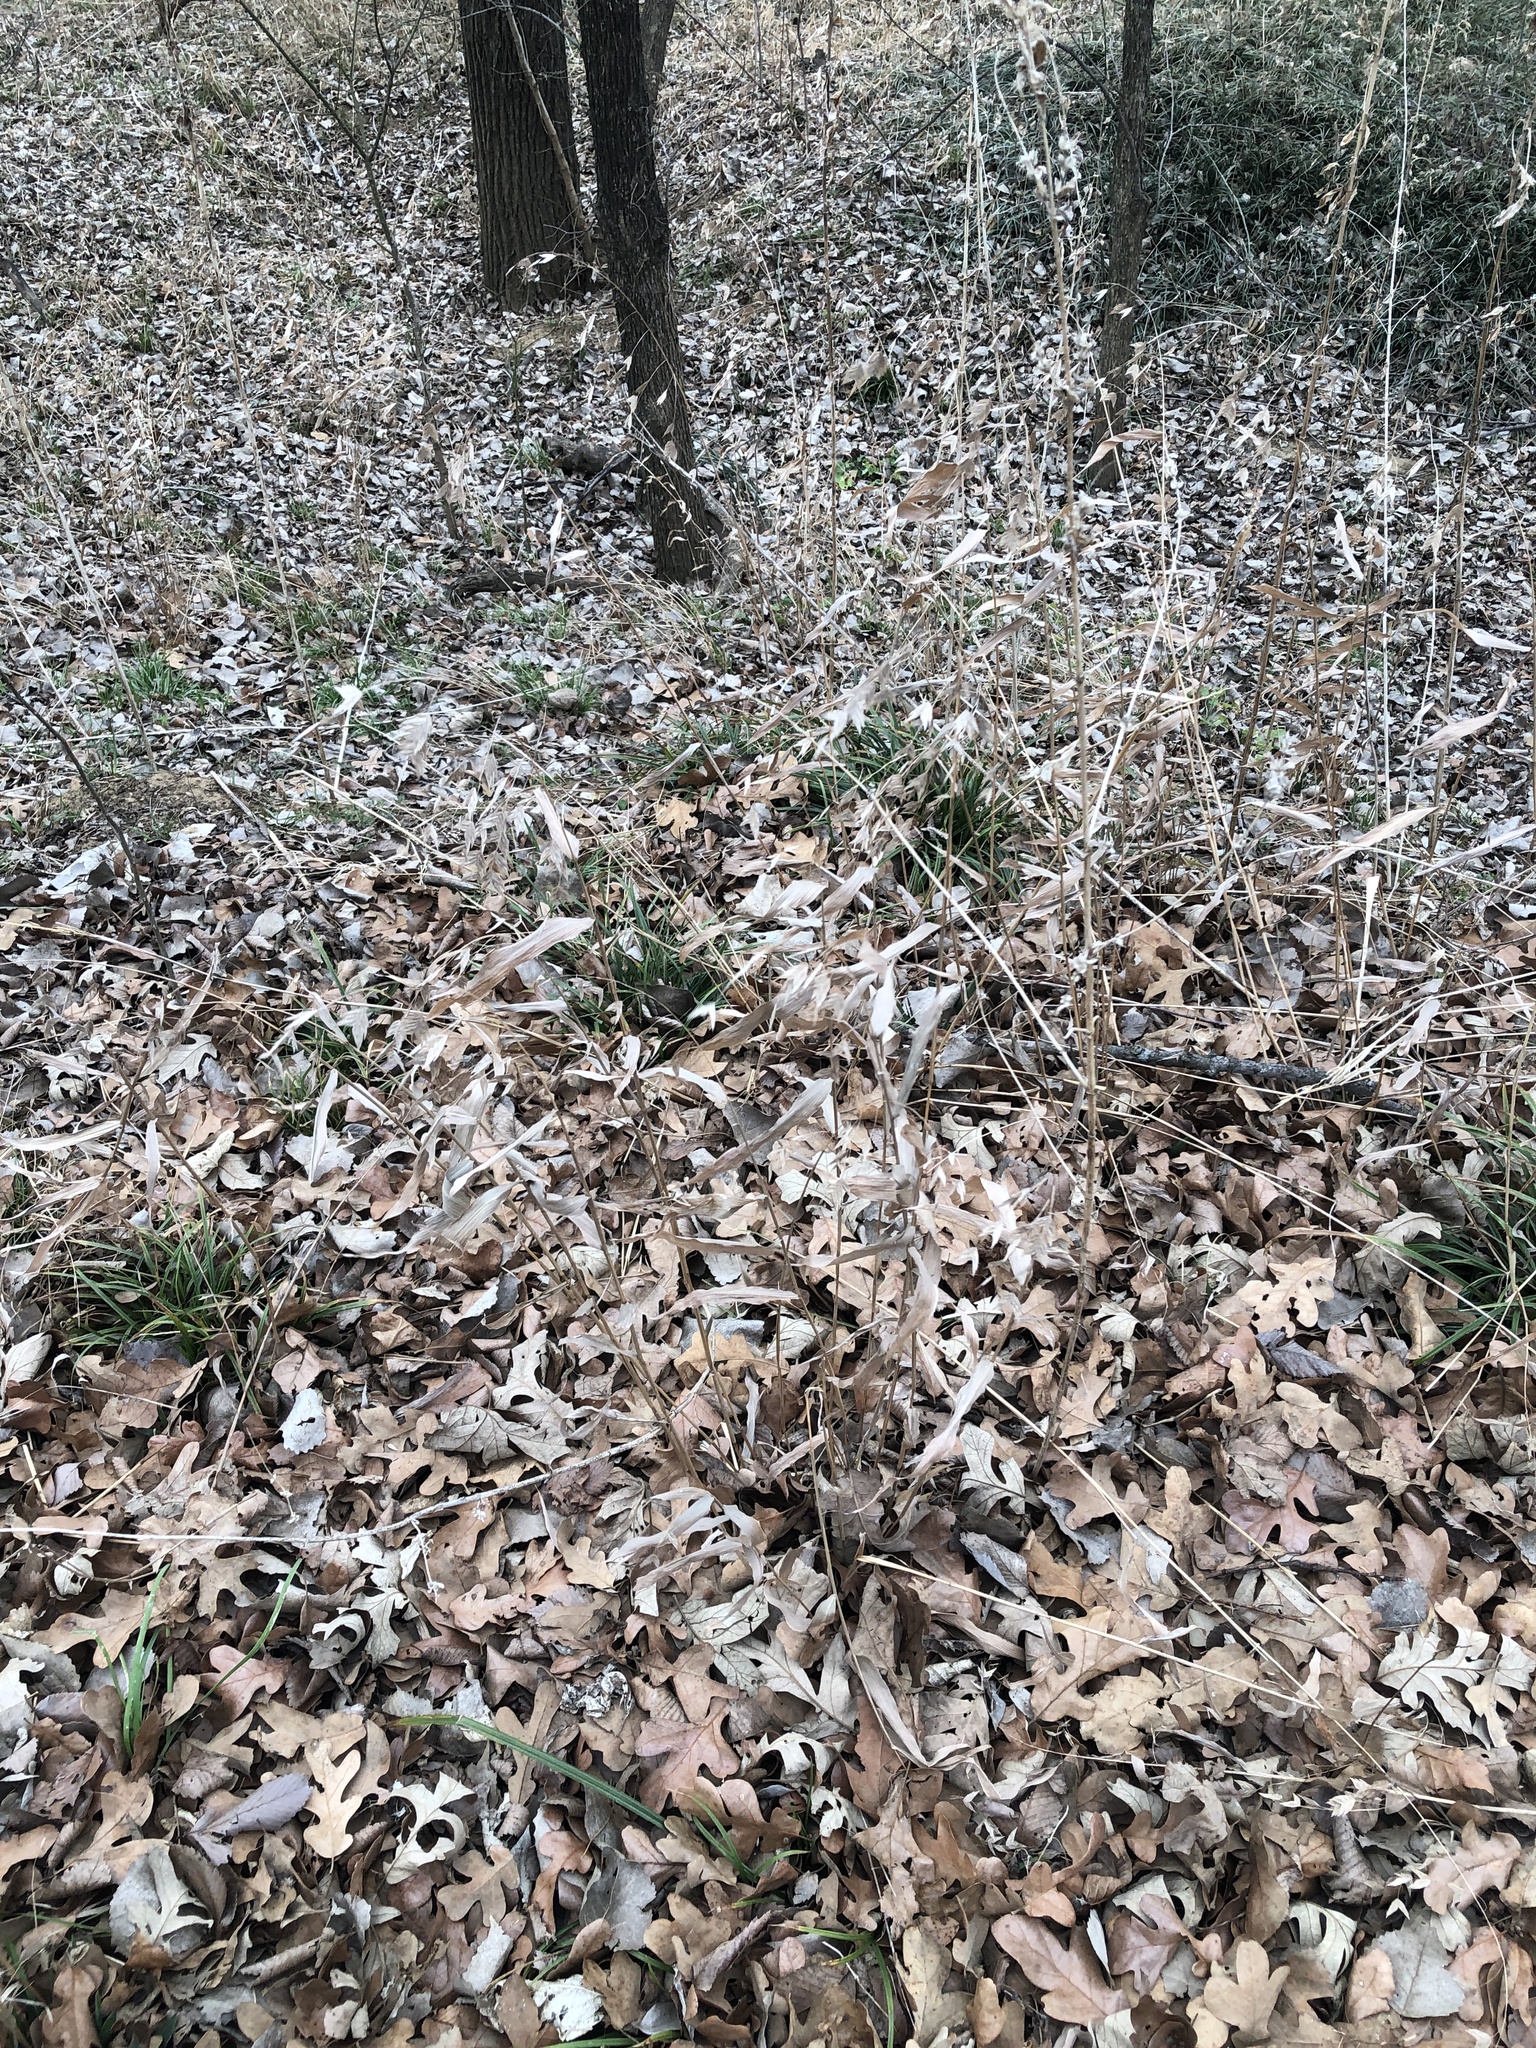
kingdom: Plantae
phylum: Tracheophyta
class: Liliopsida
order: Poales
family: Poaceae
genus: Chasmanthium
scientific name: Chasmanthium latifolium
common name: Broad-leaved chasmanthium
